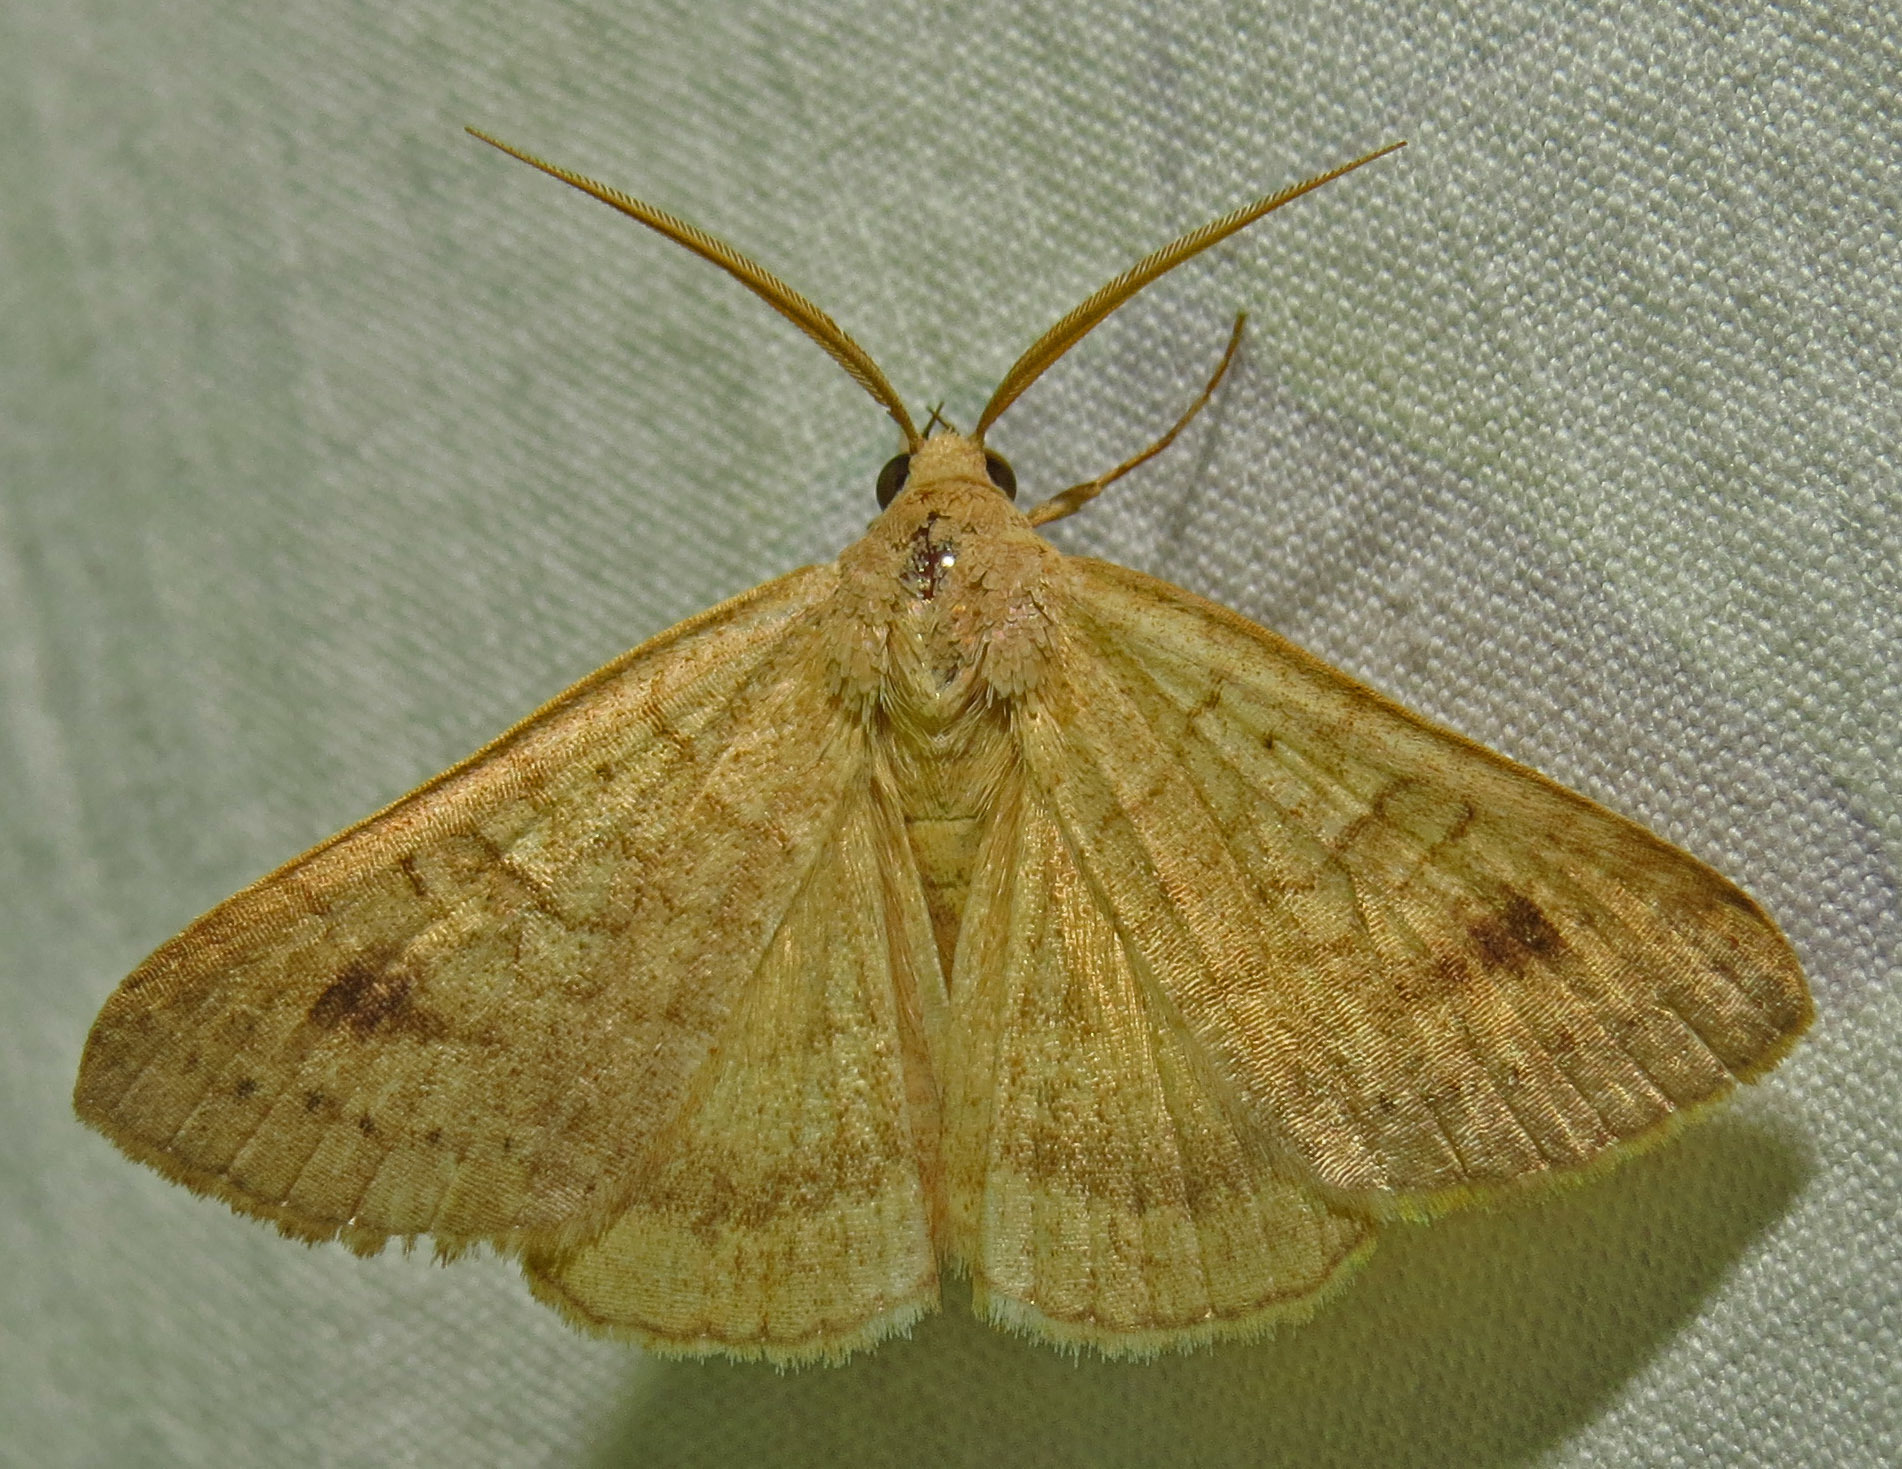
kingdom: Animalia
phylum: Arthropoda
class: Insecta
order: Lepidoptera
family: Erebidae
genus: Caenurgia
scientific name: Caenurgia chloropha
